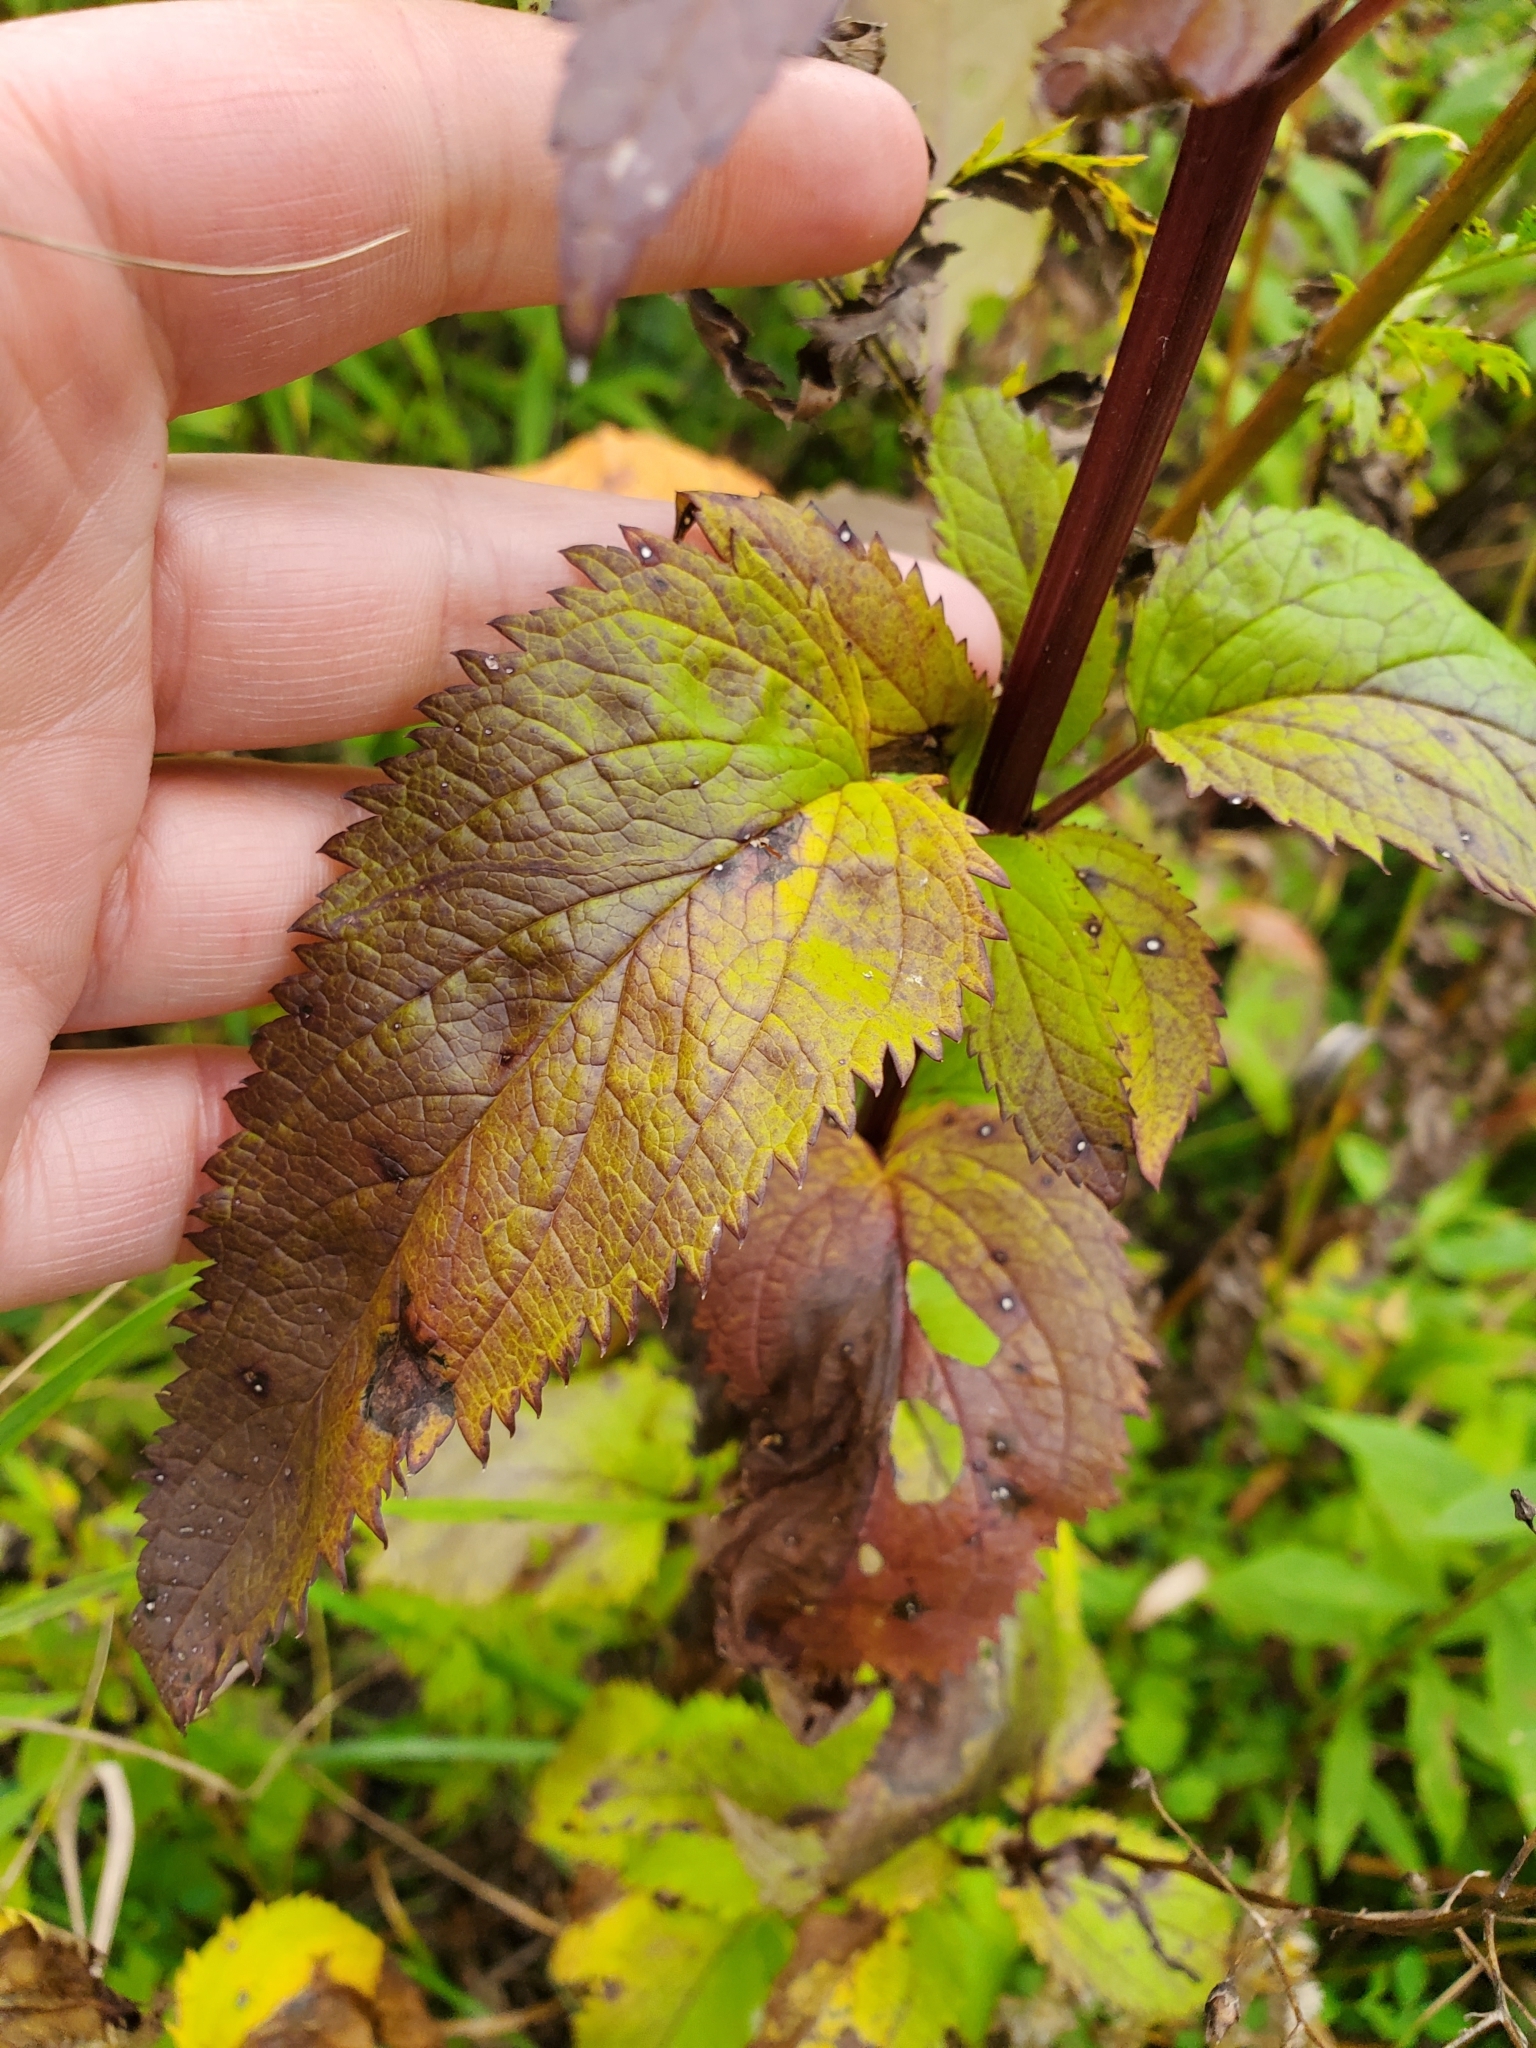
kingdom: Plantae
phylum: Tracheophyta
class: Magnoliopsida
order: Lamiales
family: Scrophulariaceae
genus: Scrophularia
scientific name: Scrophularia lanceolata
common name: American figwort
